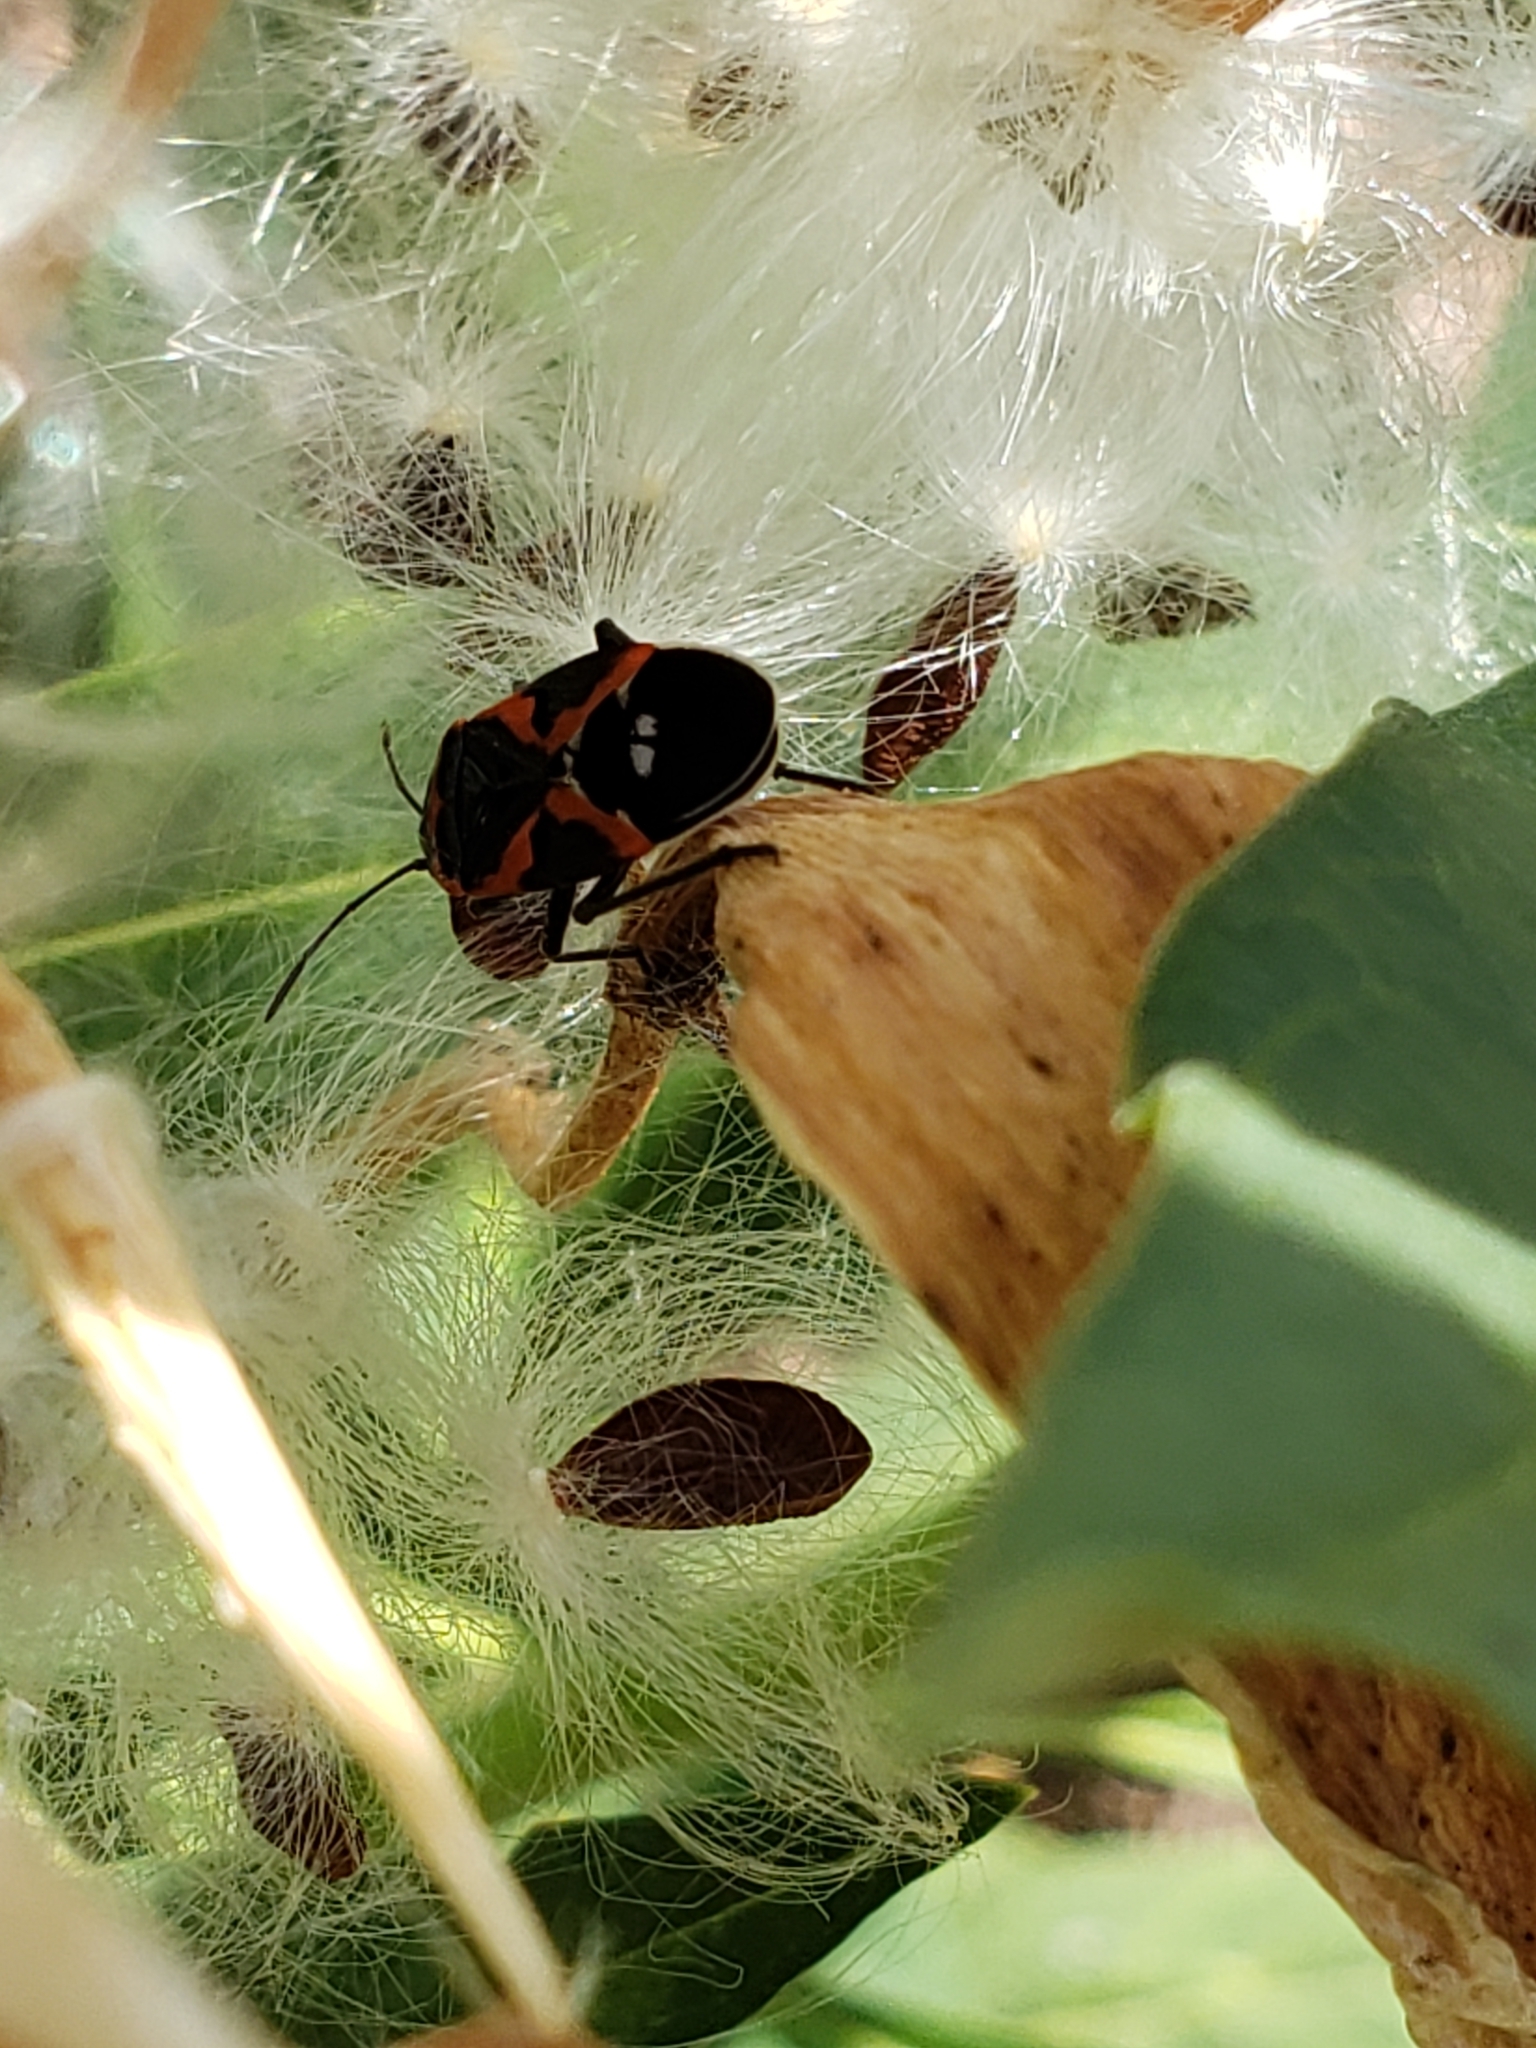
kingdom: Animalia
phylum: Arthropoda
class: Insecta
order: Hemiptera
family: Lygaeidae
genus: Lygaeus
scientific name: Lygaeus kalmii
